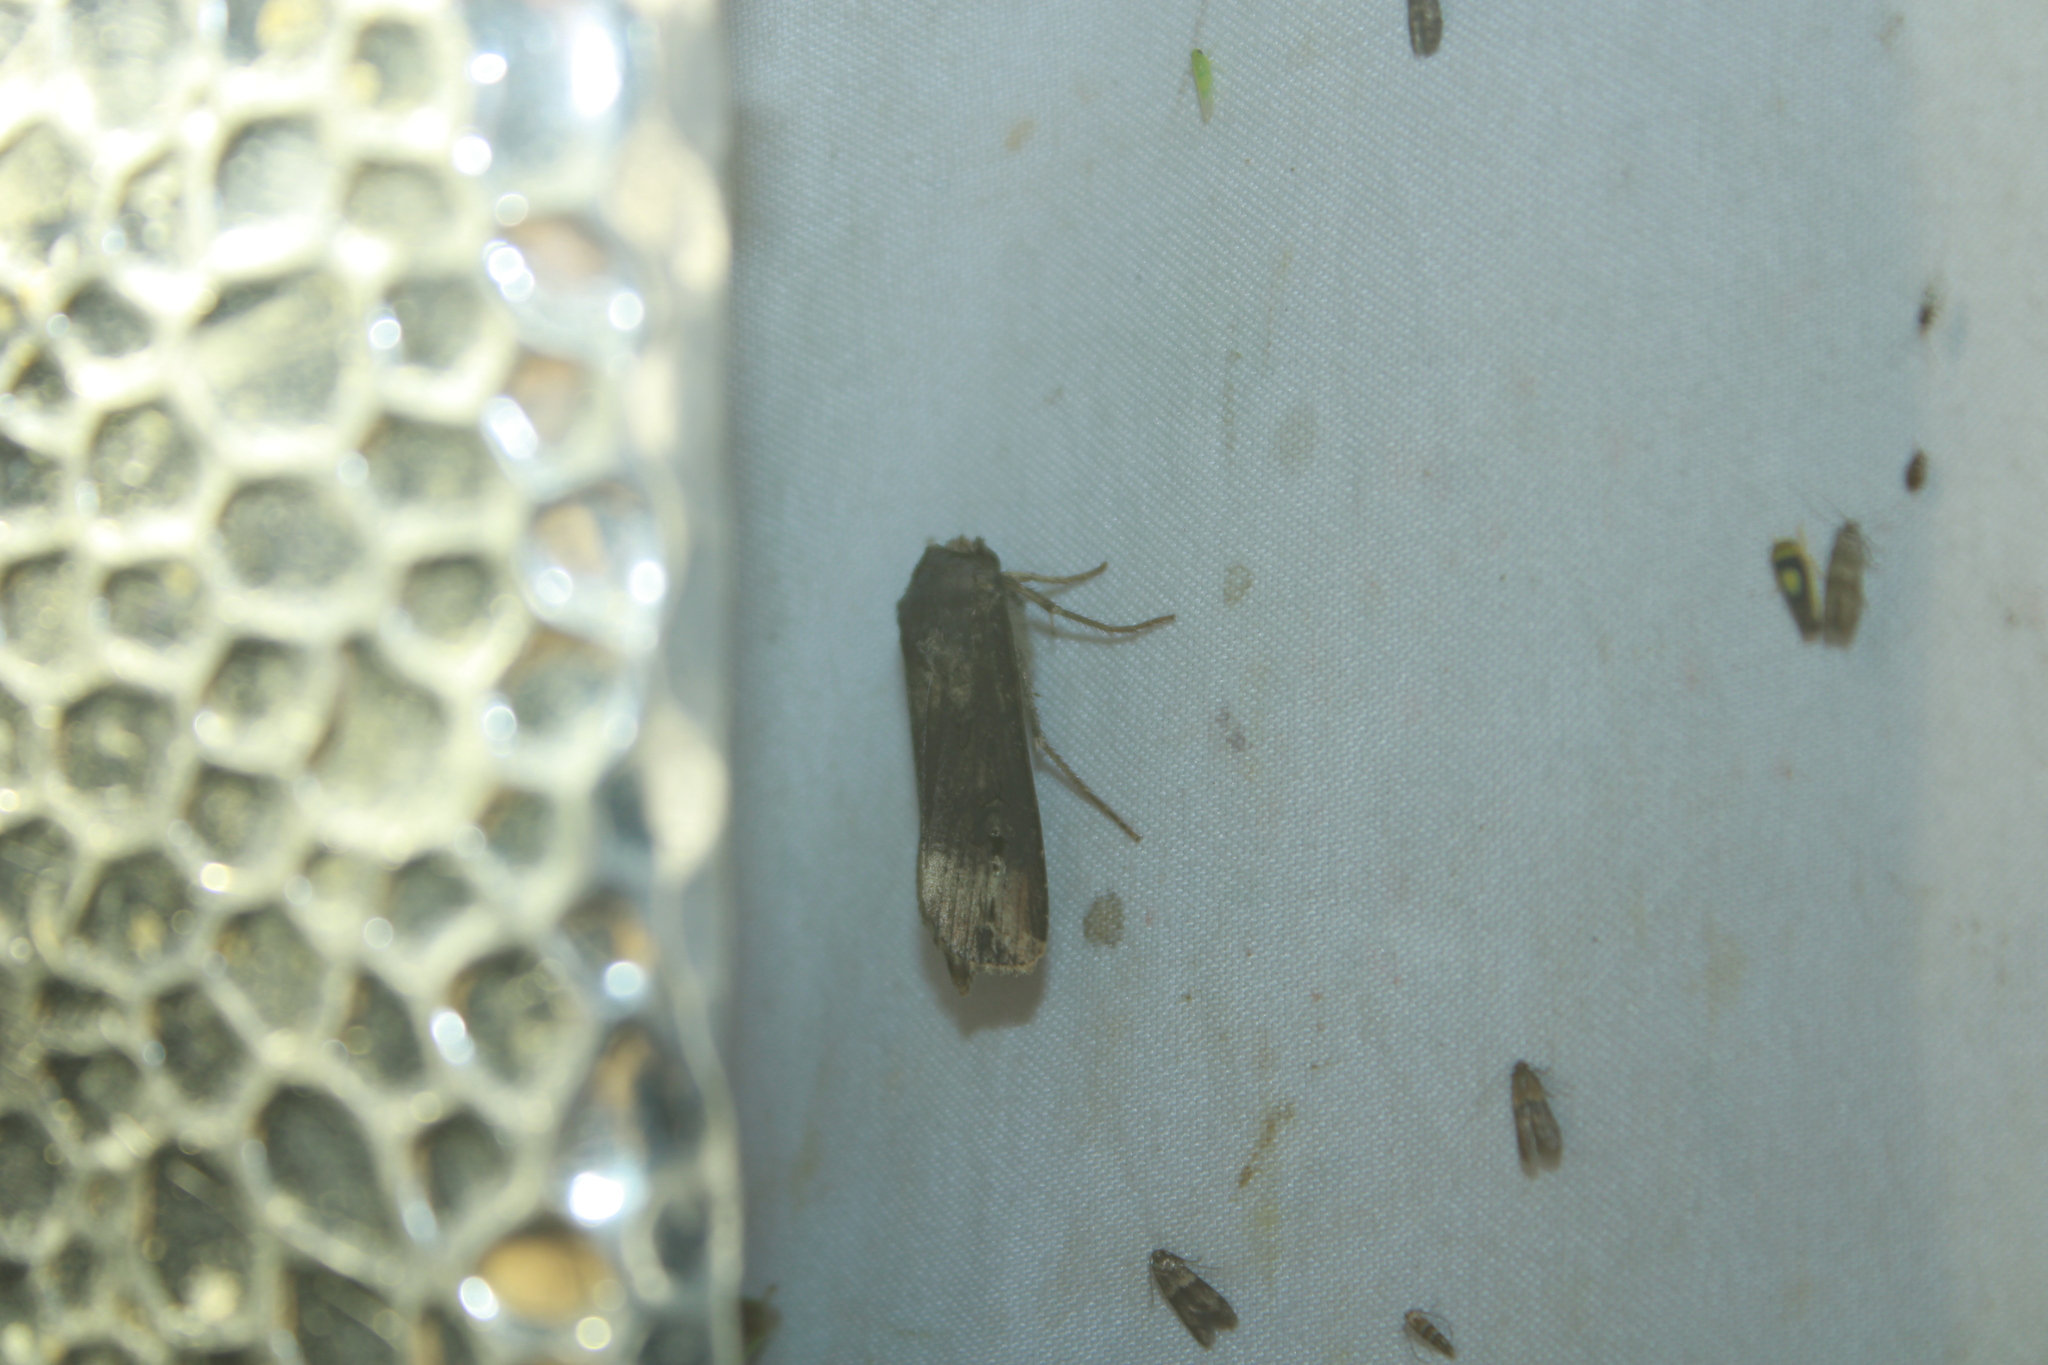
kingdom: Animalia
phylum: Arthropoda
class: Insecta
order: Lepidoptera
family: Noctuidae
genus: Agrotis
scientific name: Agrotis ipsilon
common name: Dark sword-grass
